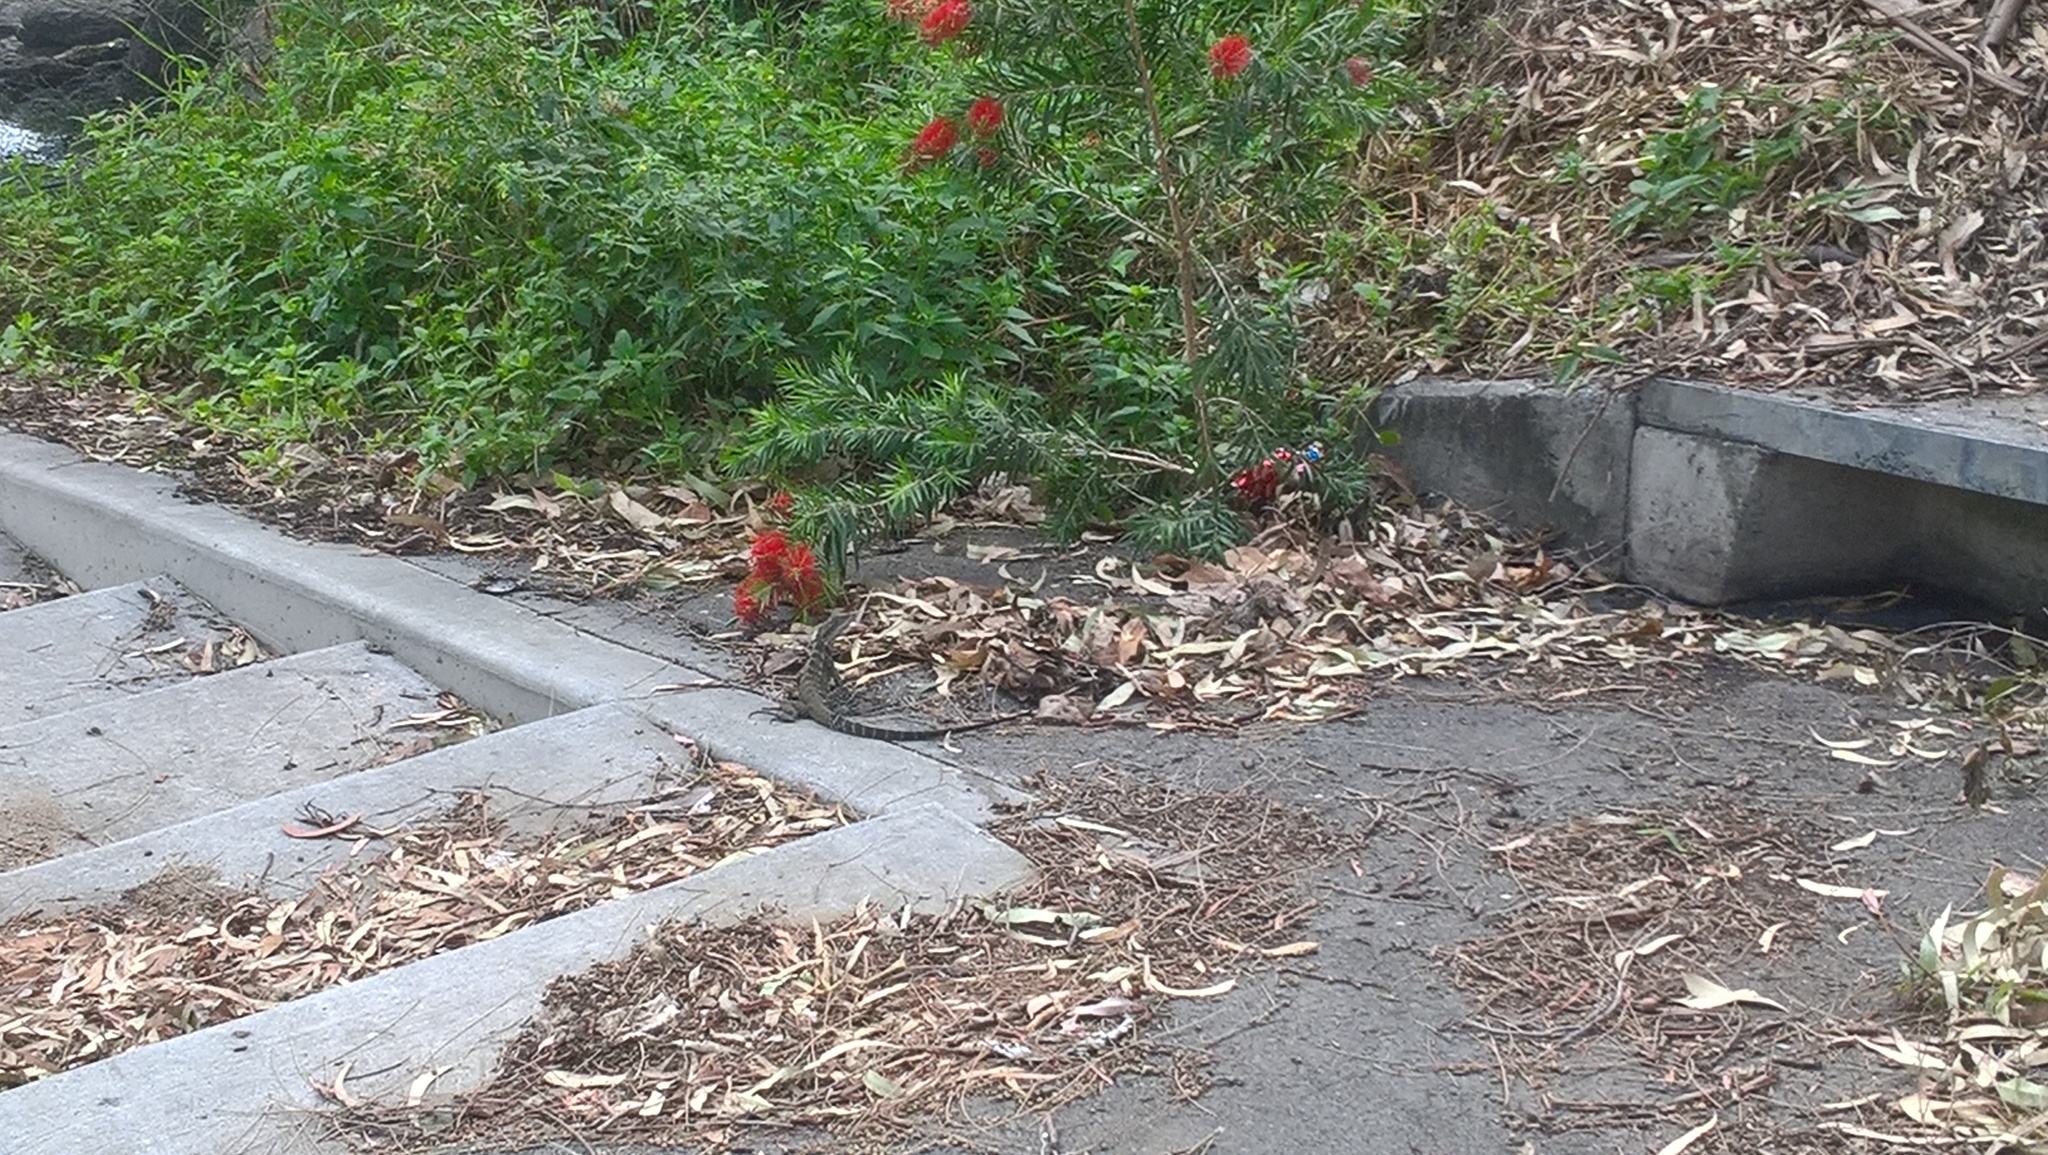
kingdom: Animalia
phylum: Chordata
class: Squamata
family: Agamidae
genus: Intellagama
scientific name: Intellagama lesueurii
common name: Eastern water dragon
